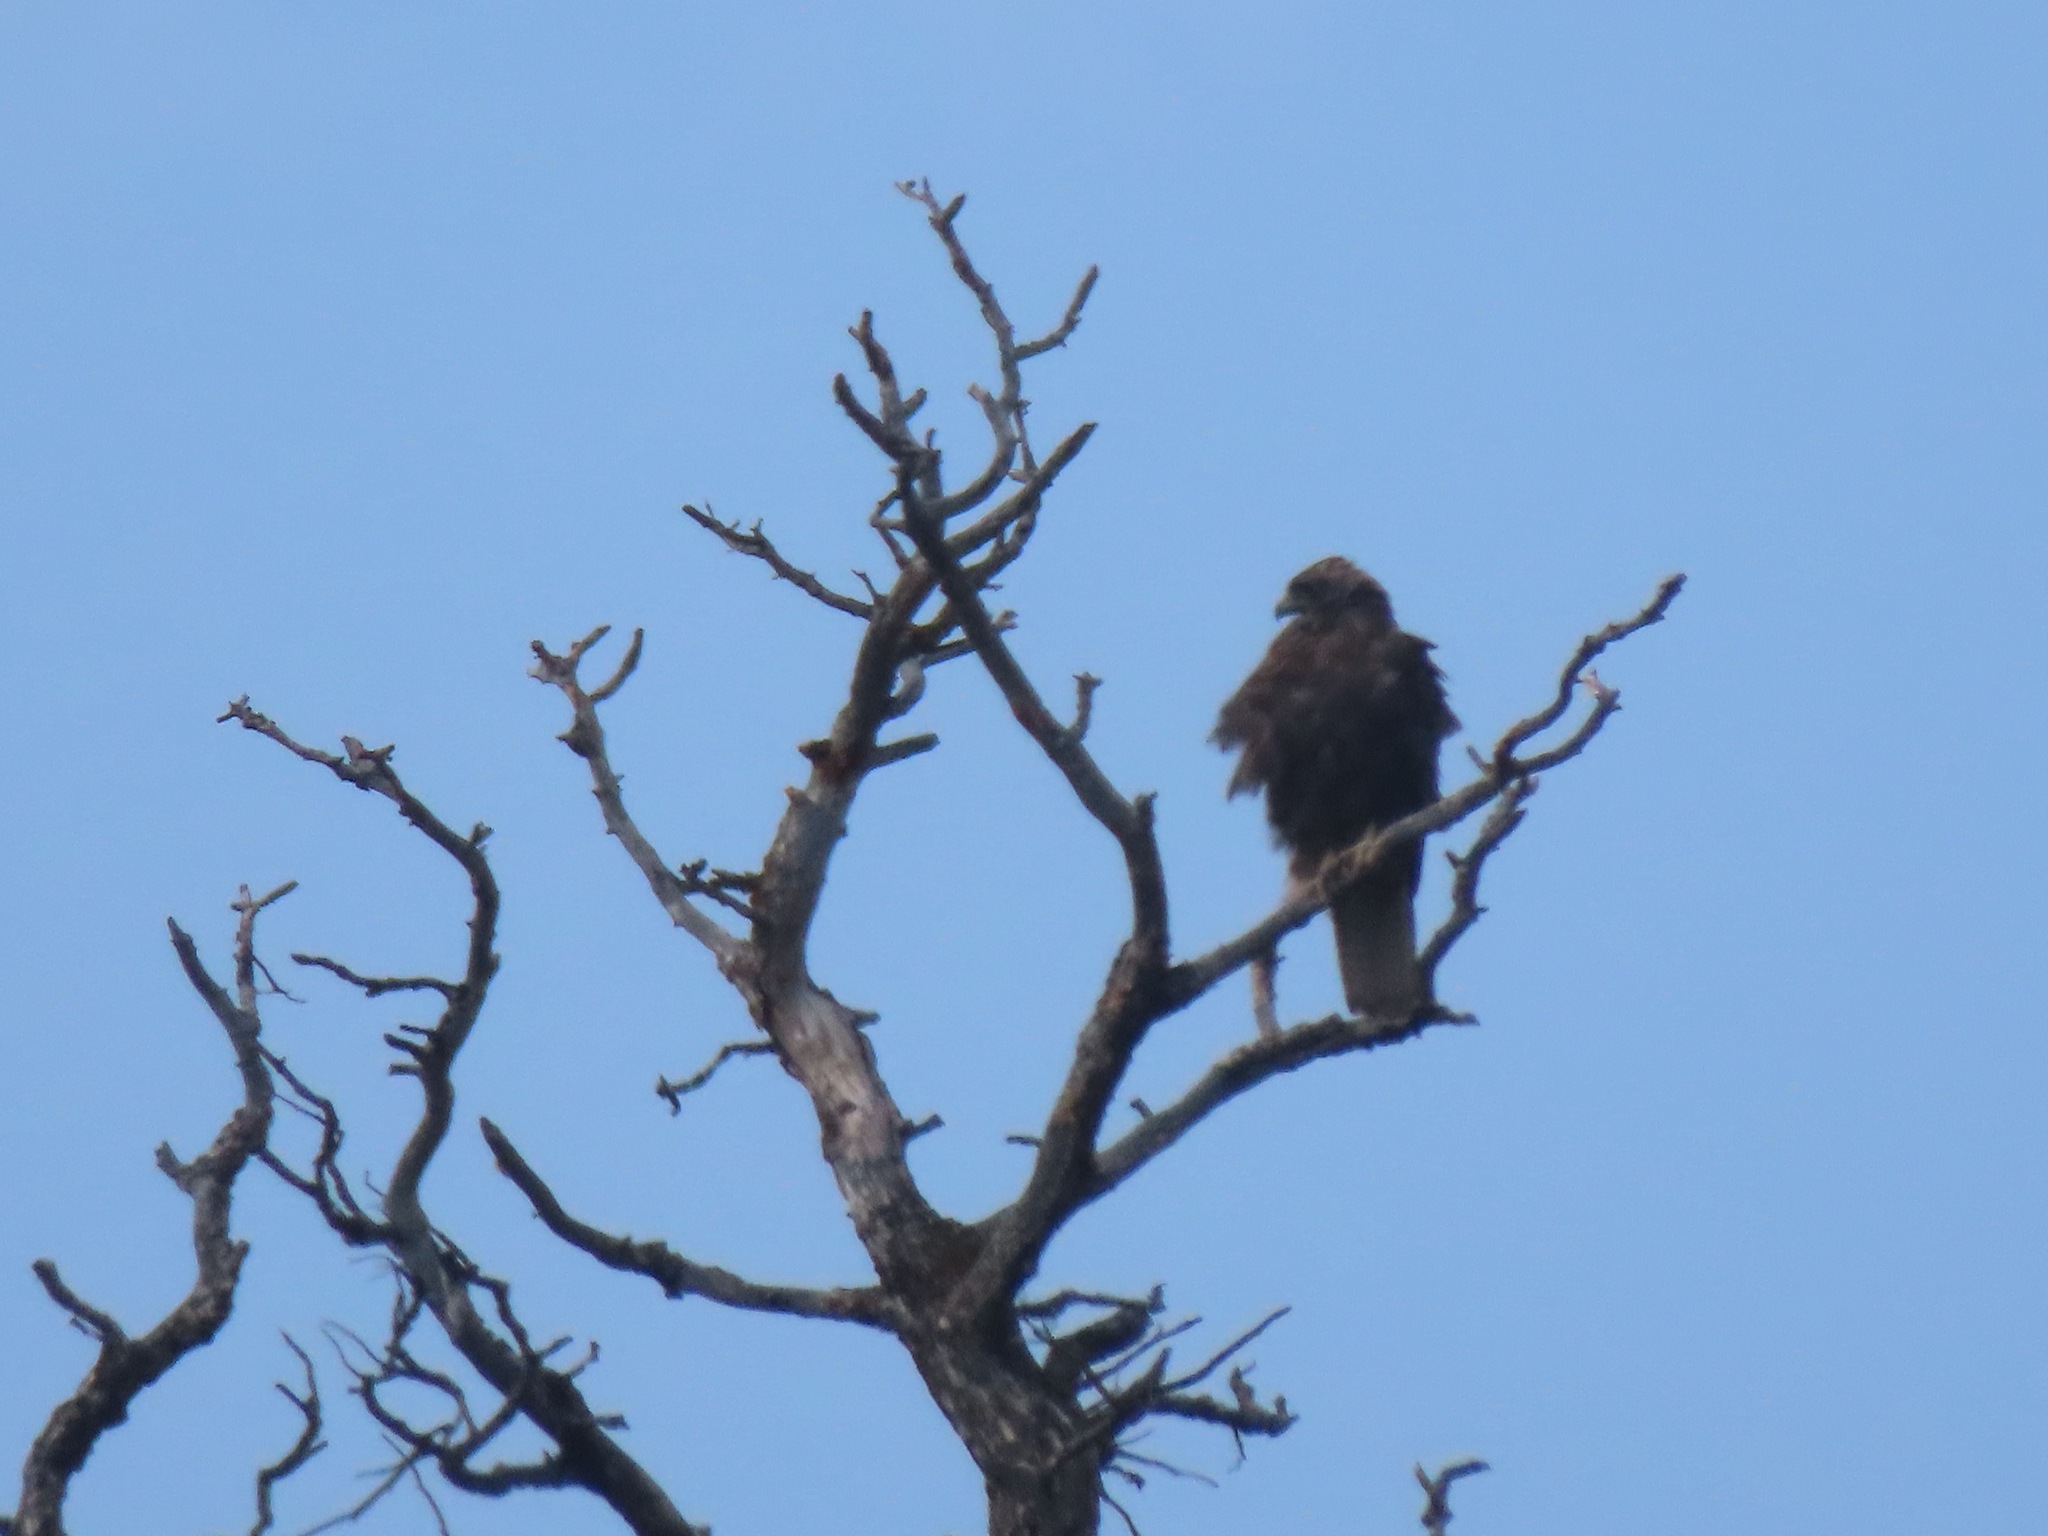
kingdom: Animalia
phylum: Chordata
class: Aves
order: Accipitriformes
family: Accipitridae
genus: Buteo
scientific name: Buteo jamaicensis
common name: Red-tailed hawk
